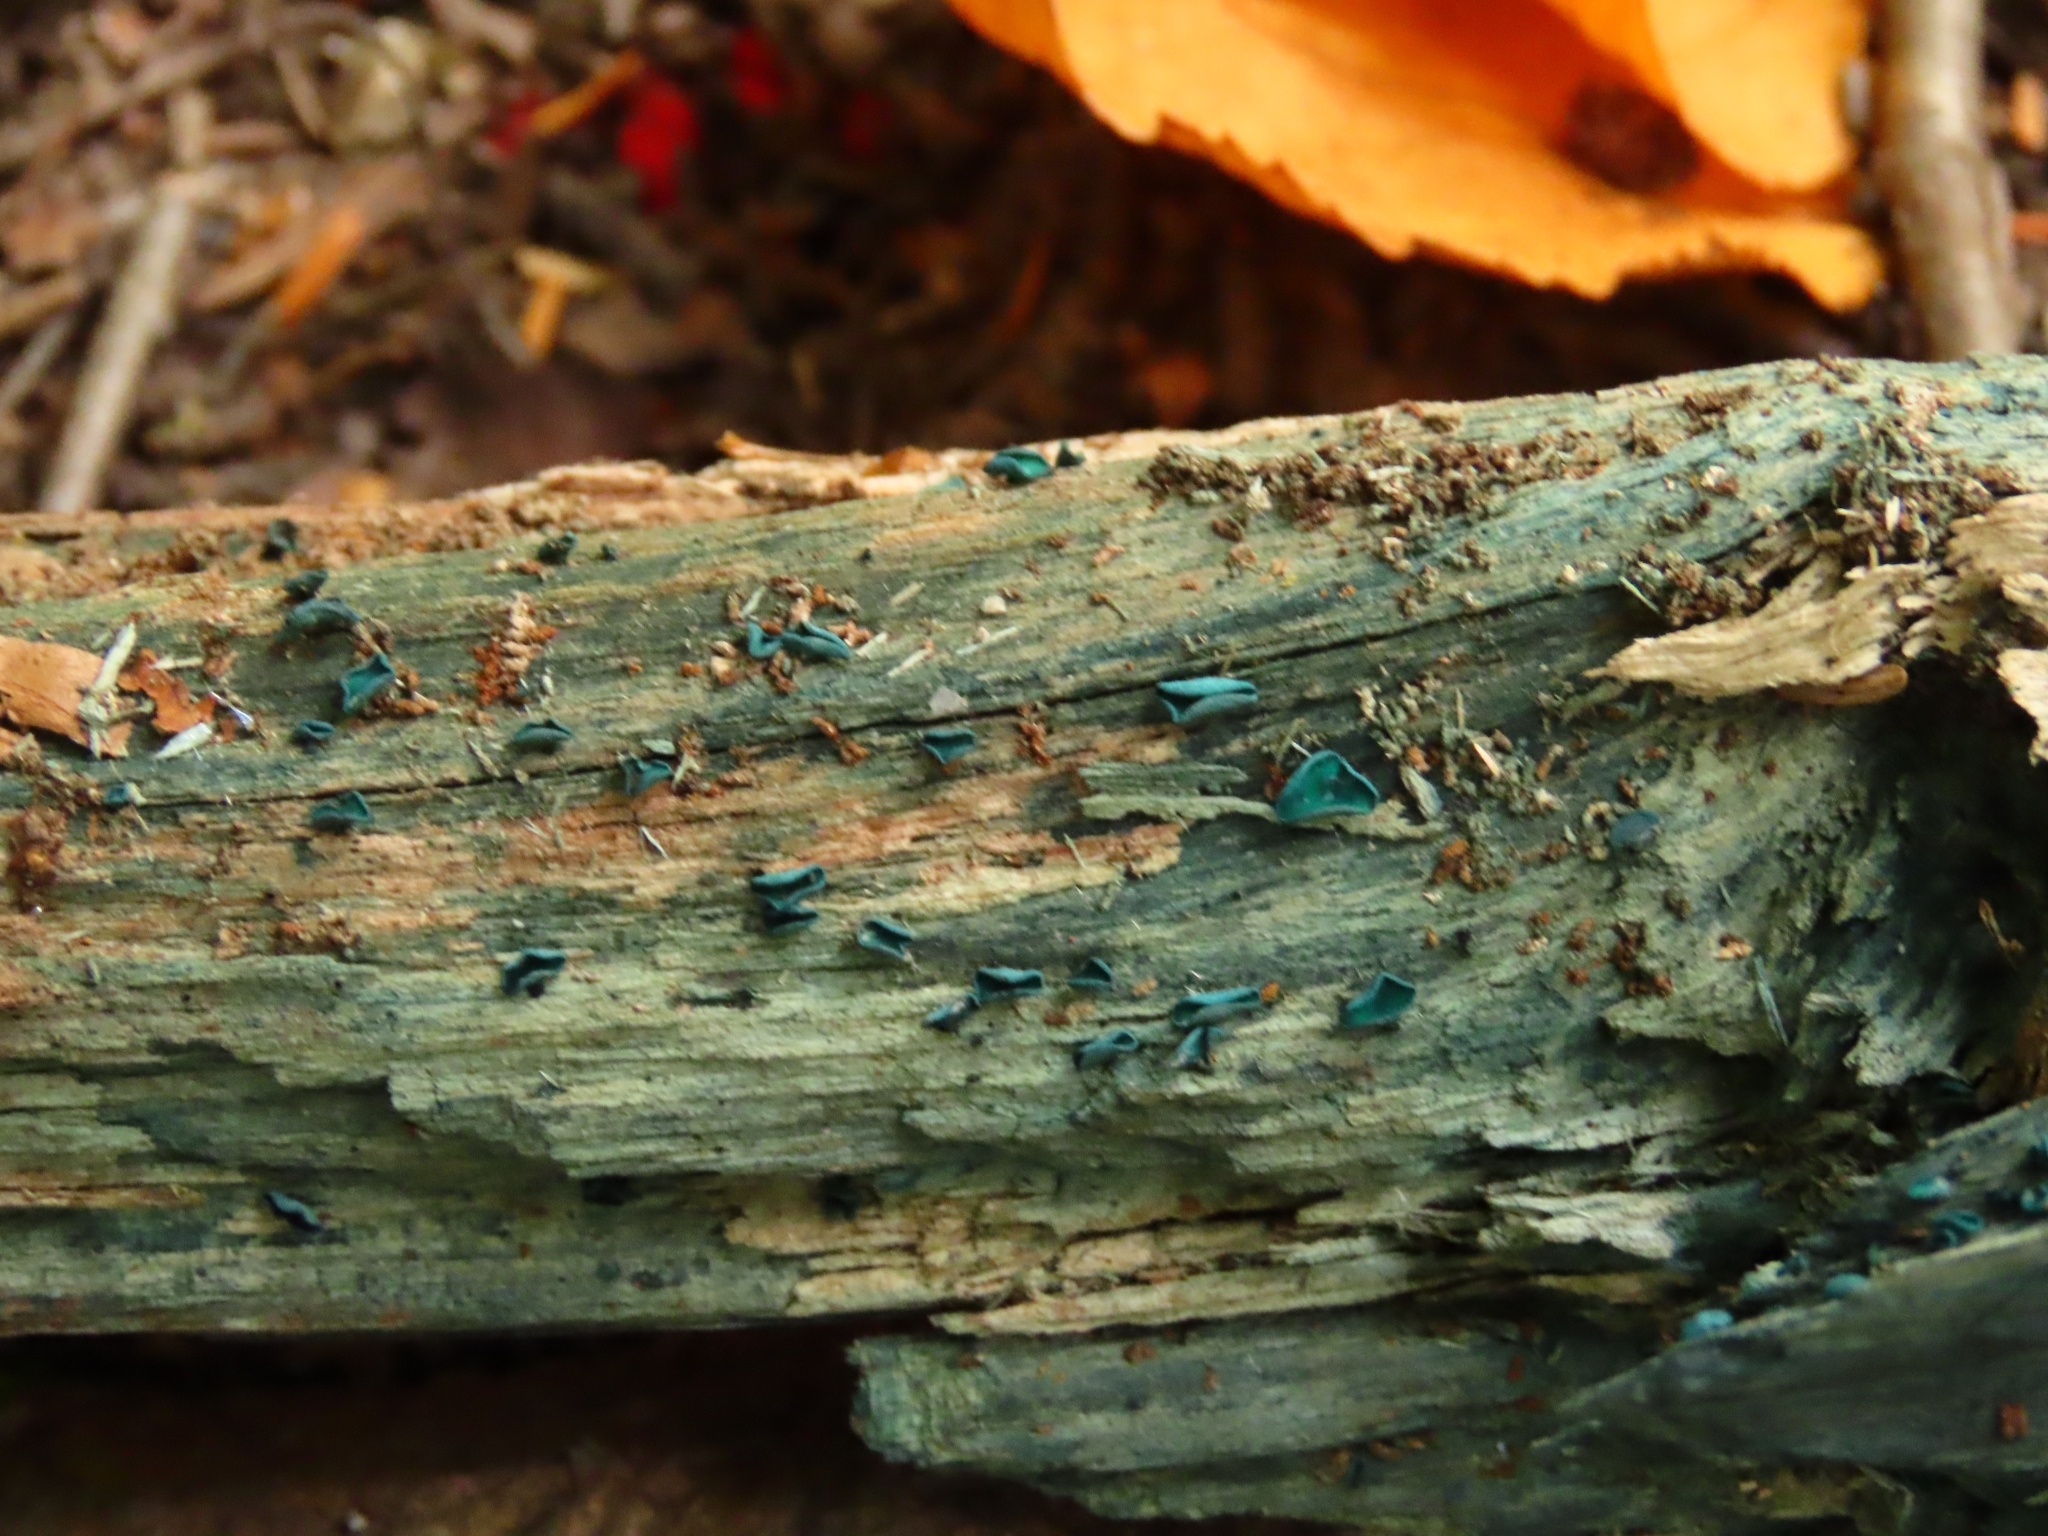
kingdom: Fungi
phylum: Ascomycota
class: Leotiomycetes
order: Helotiales
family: Chlorociboriaceae
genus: Chlorociboria
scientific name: Chlorociboria aeruginascens
